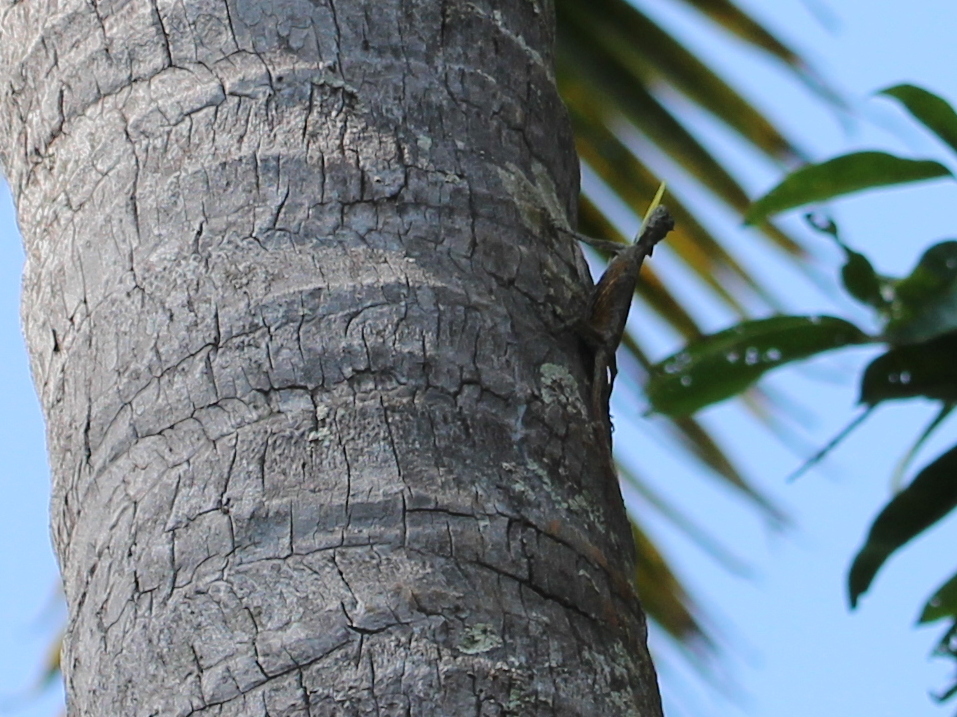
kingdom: Animalia
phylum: Chordata
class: Squamata
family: Agamidae
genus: Draco
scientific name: Draco dussumieri
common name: Southern flying lizard
